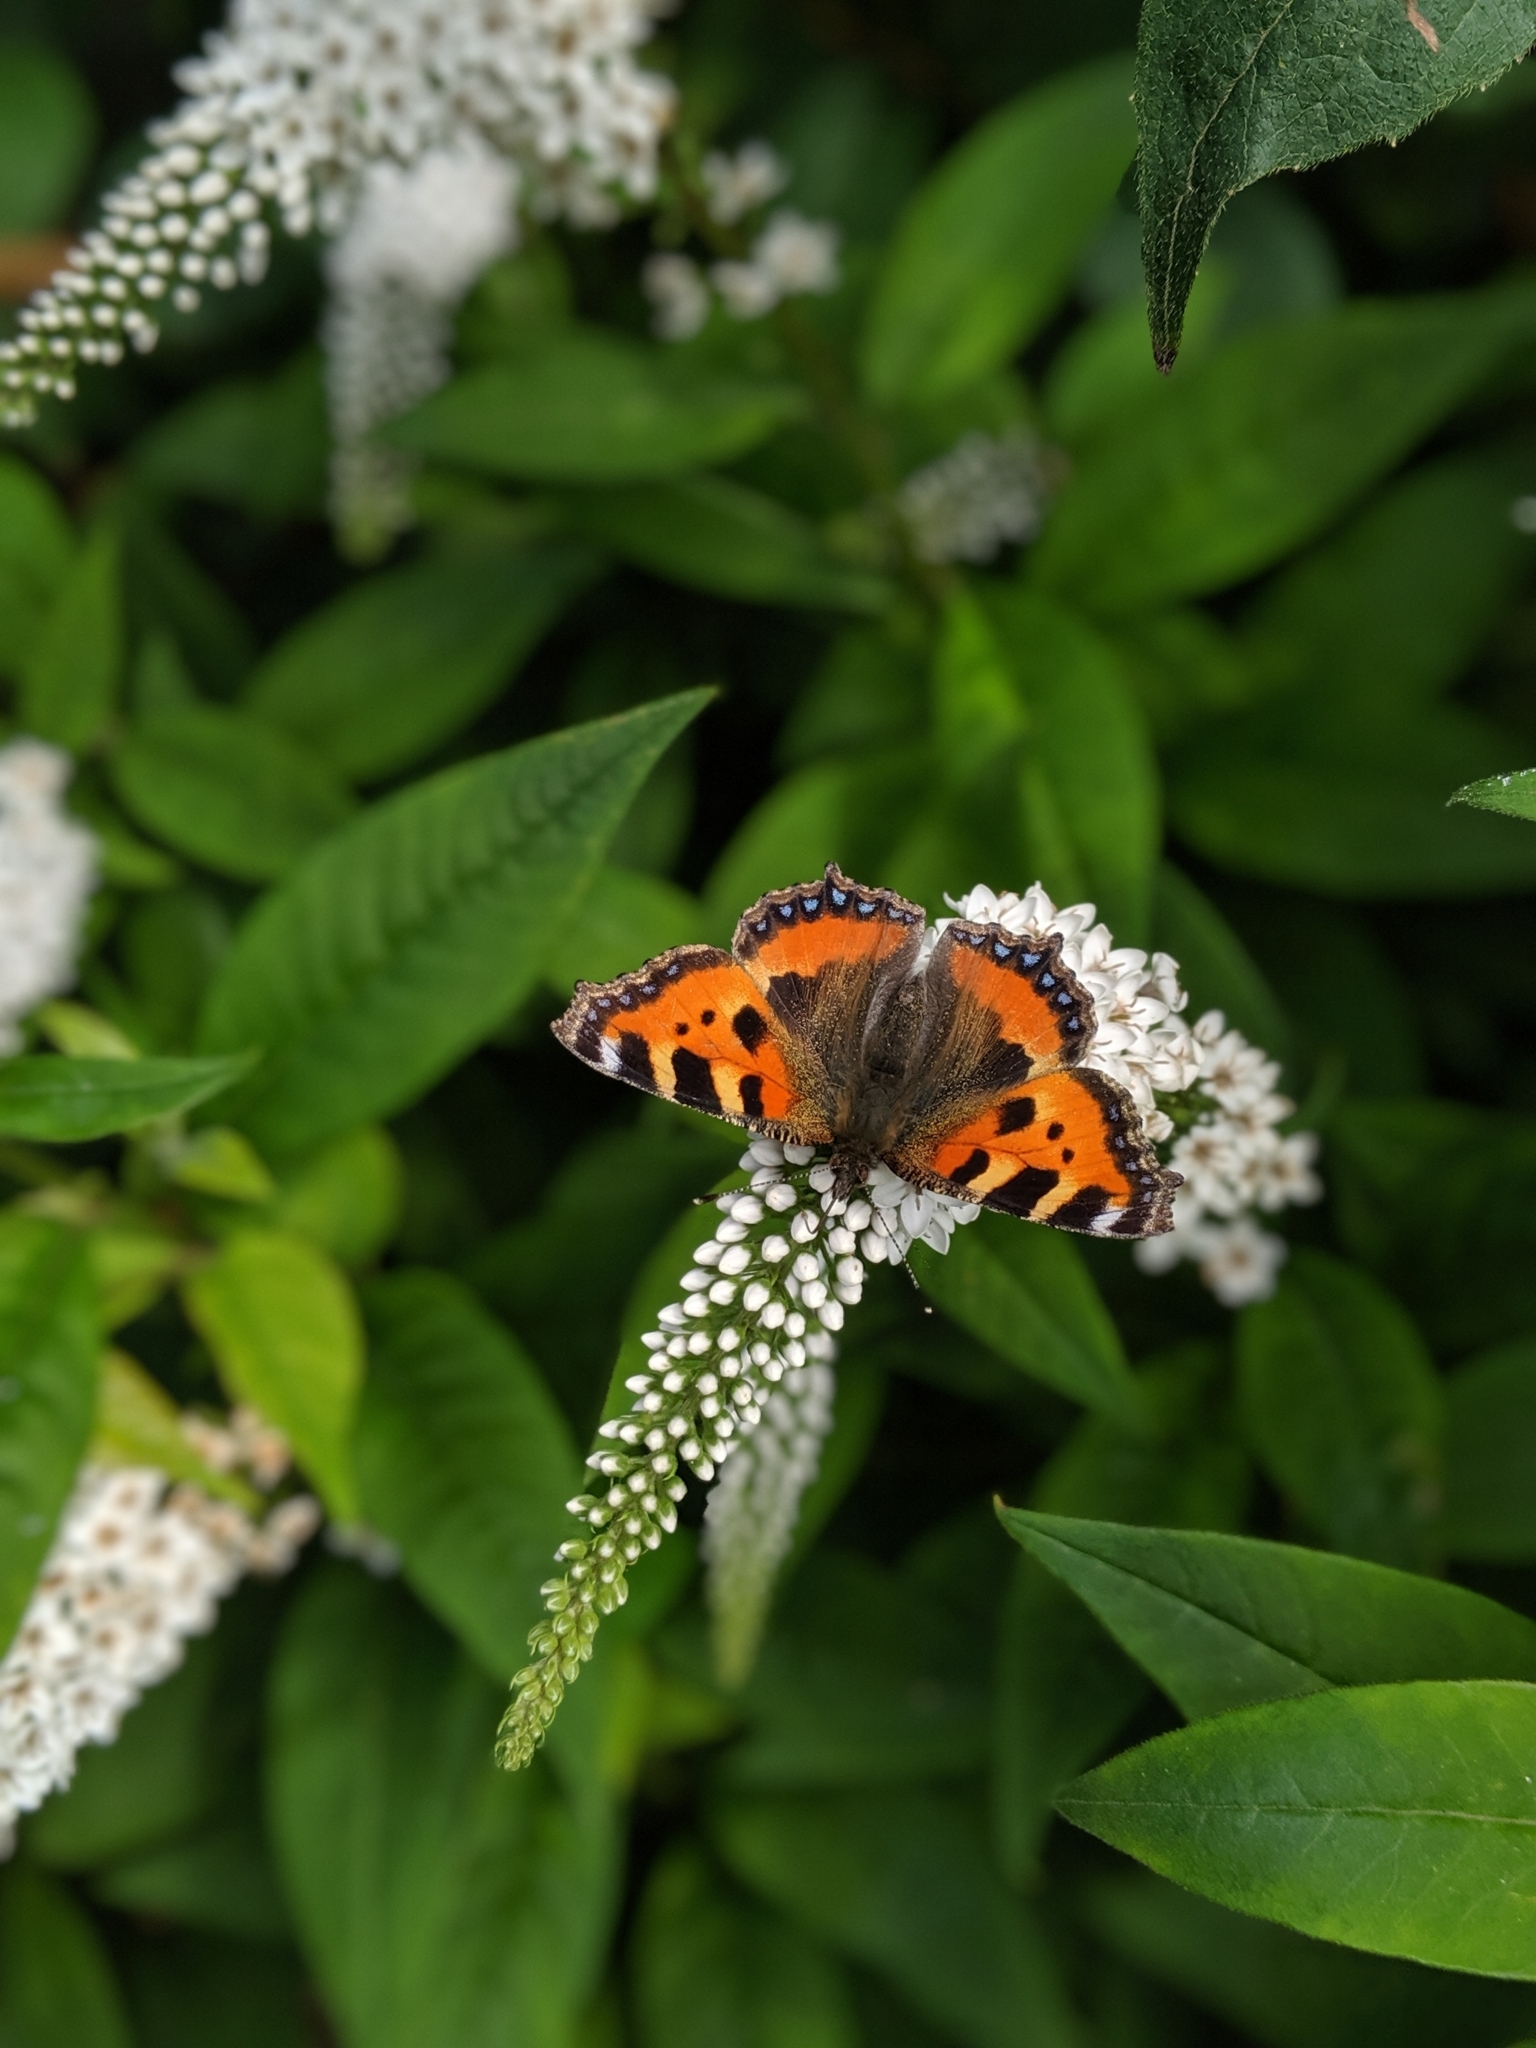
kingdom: Animalia
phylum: Arthropoda
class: Insecta
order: Lepidoptera
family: Nymphalidae
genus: Aglais
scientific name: Aglais urticae
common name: Small tortoiseshell
